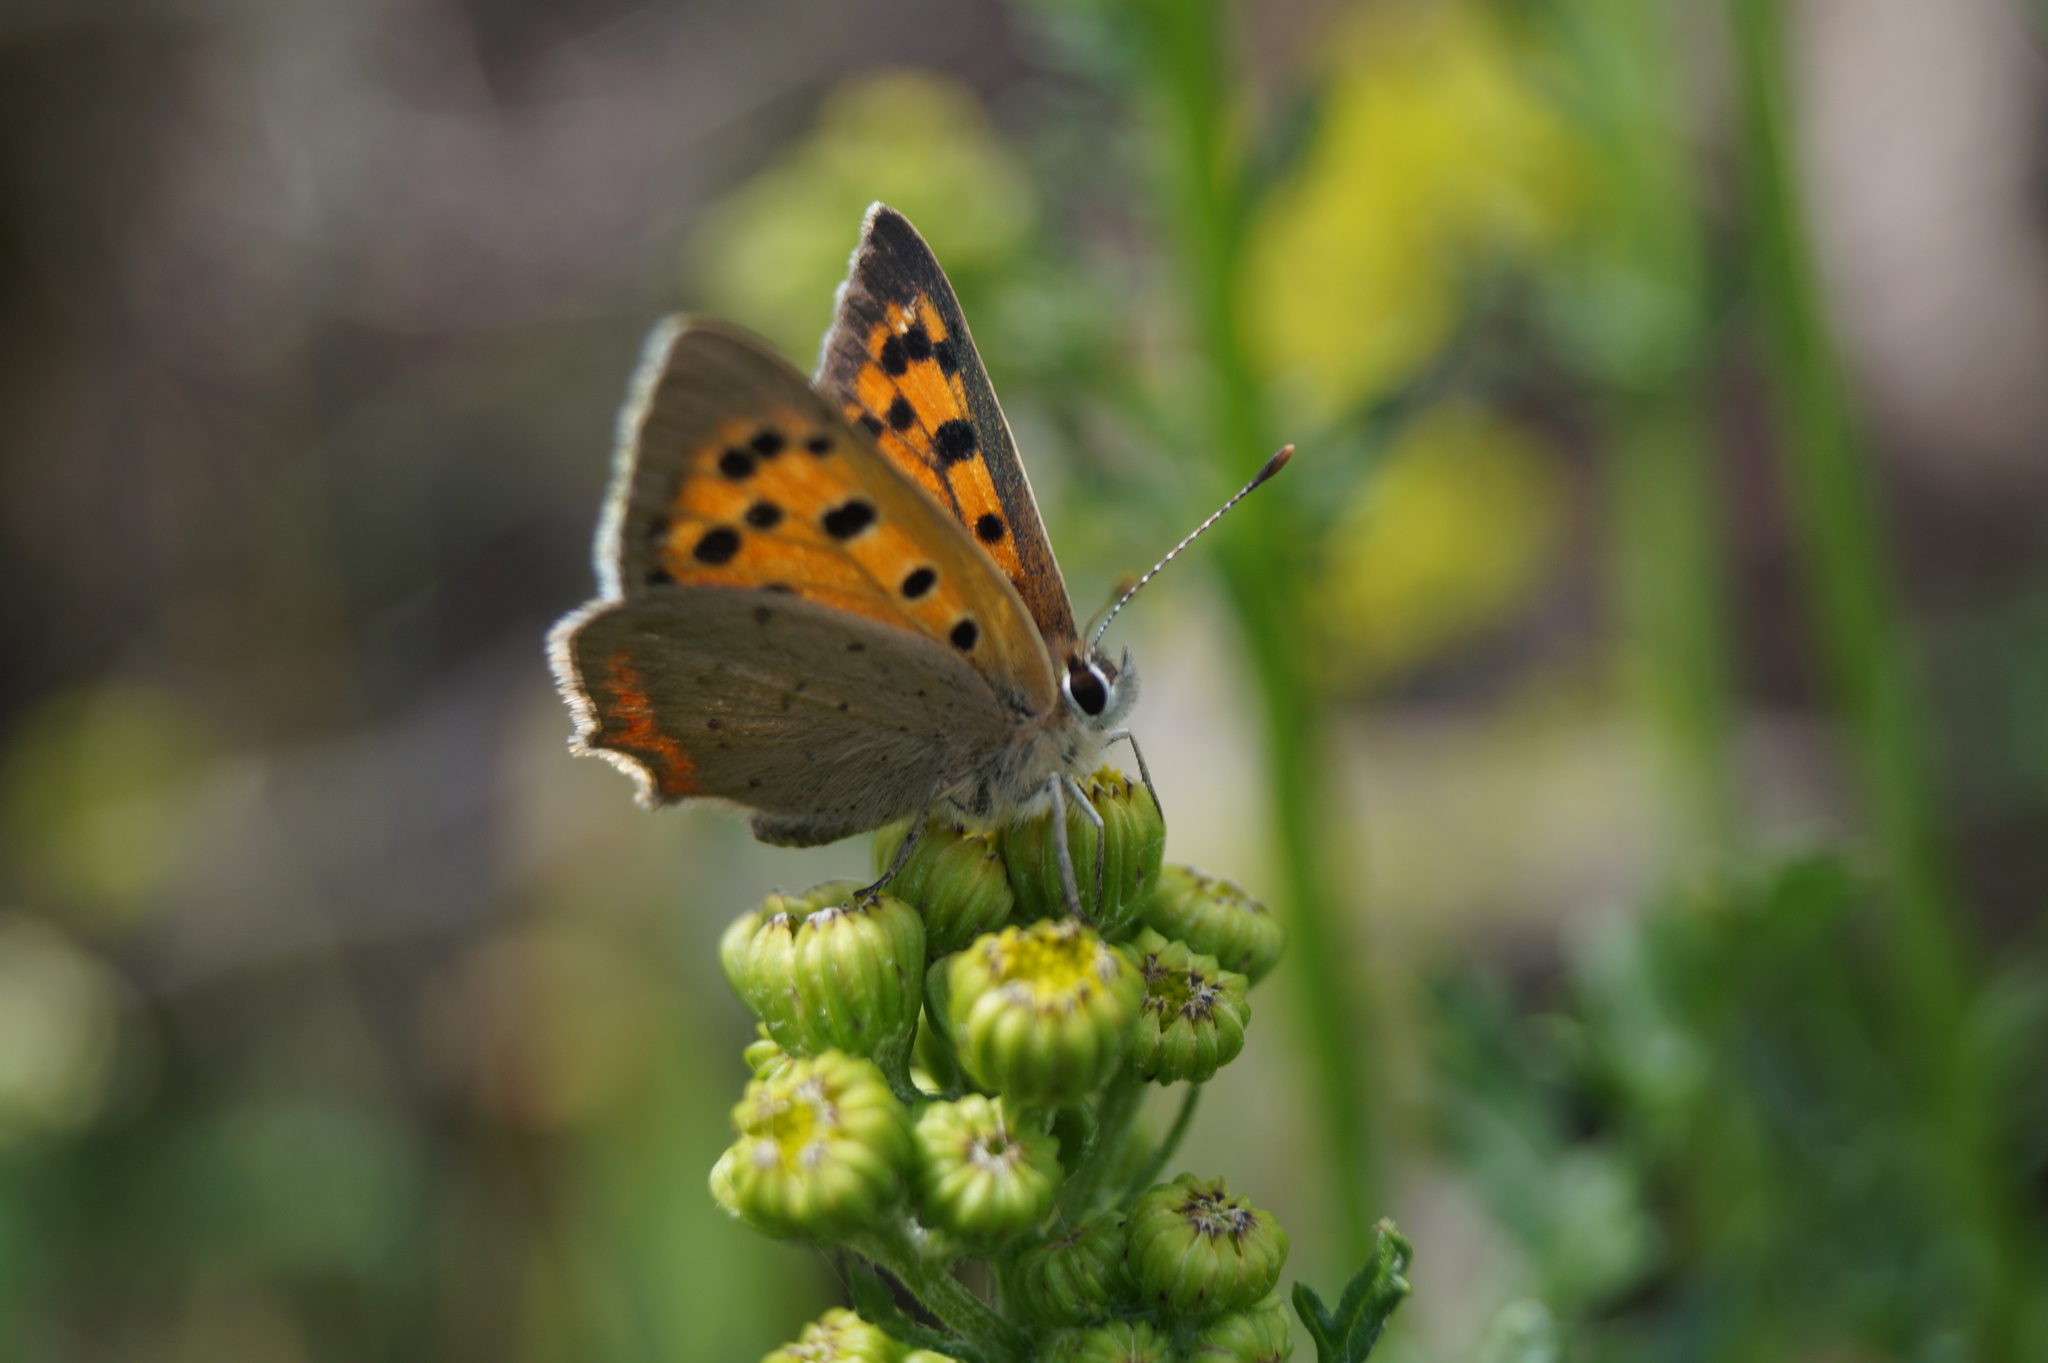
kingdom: Animalia
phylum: Arthropoda
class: Insecta
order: Lepidoptera
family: Lycaenidae
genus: Lycaena
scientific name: Lycaena phlaeas
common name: Small copper
